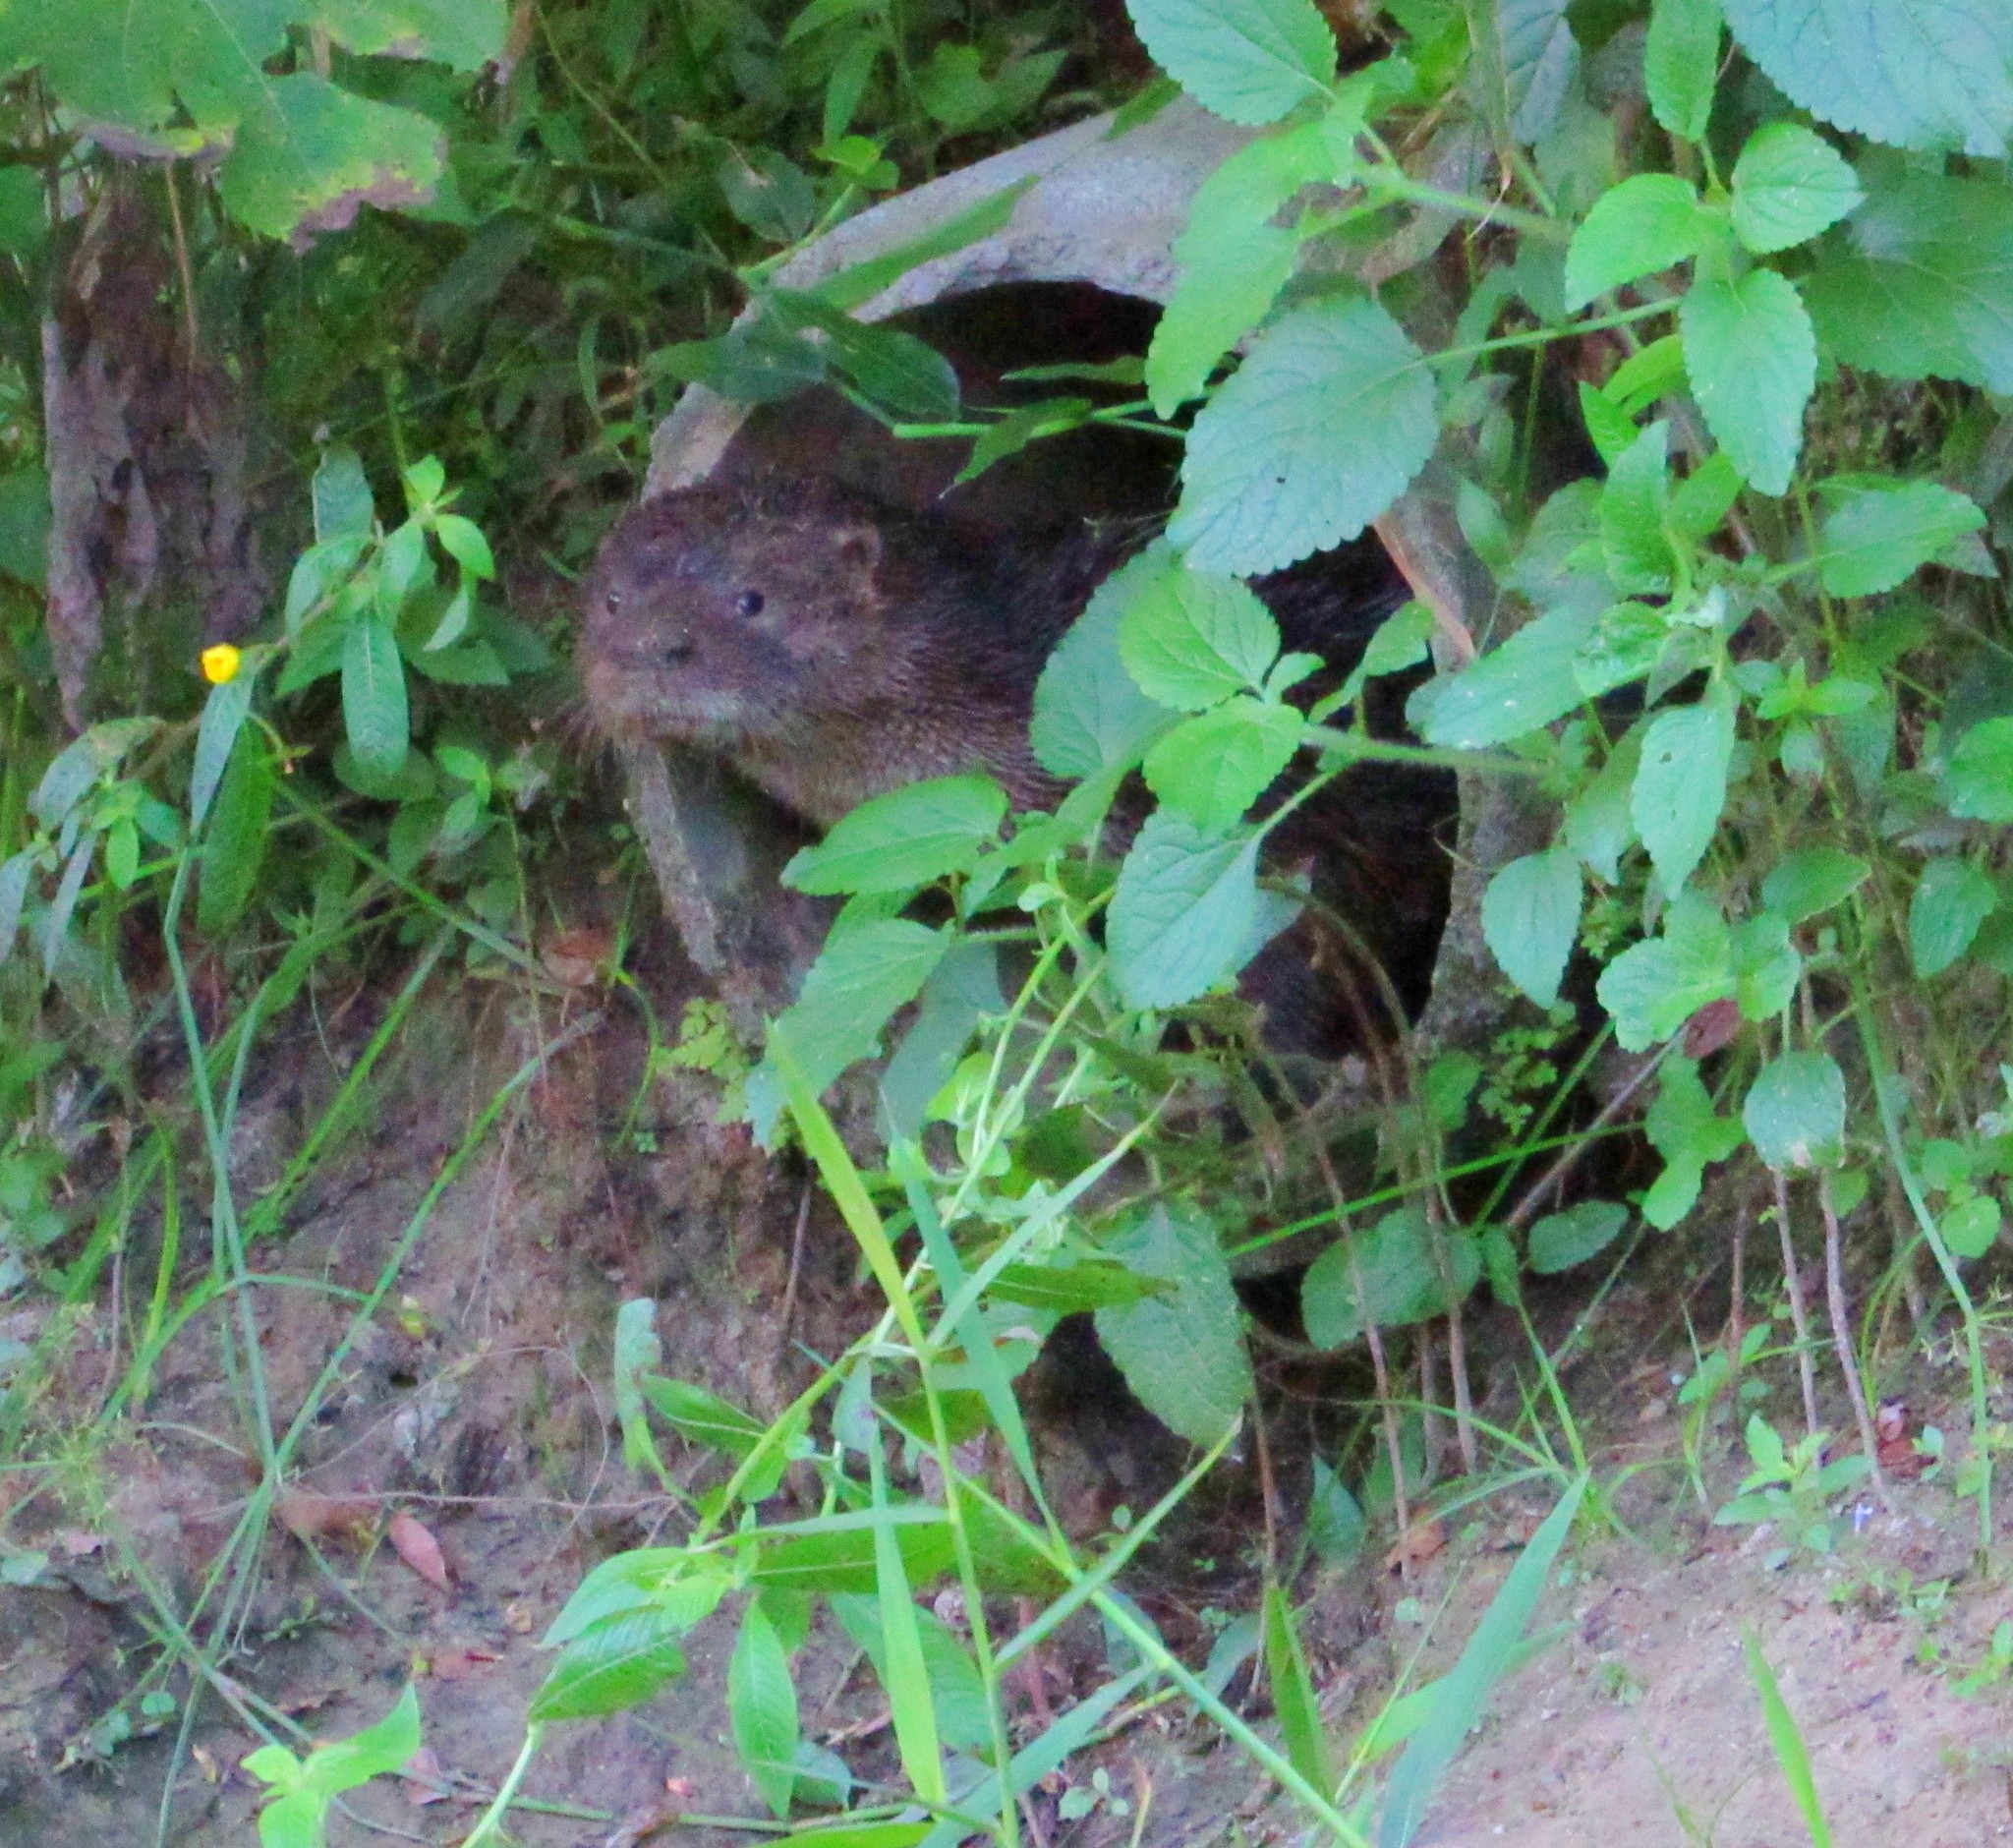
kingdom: Animalia
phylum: Chordata
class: Mammalia
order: Carnivora
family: Mustelidae
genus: Lontra
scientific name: Lontra longicaudis
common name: Neotropical otter
